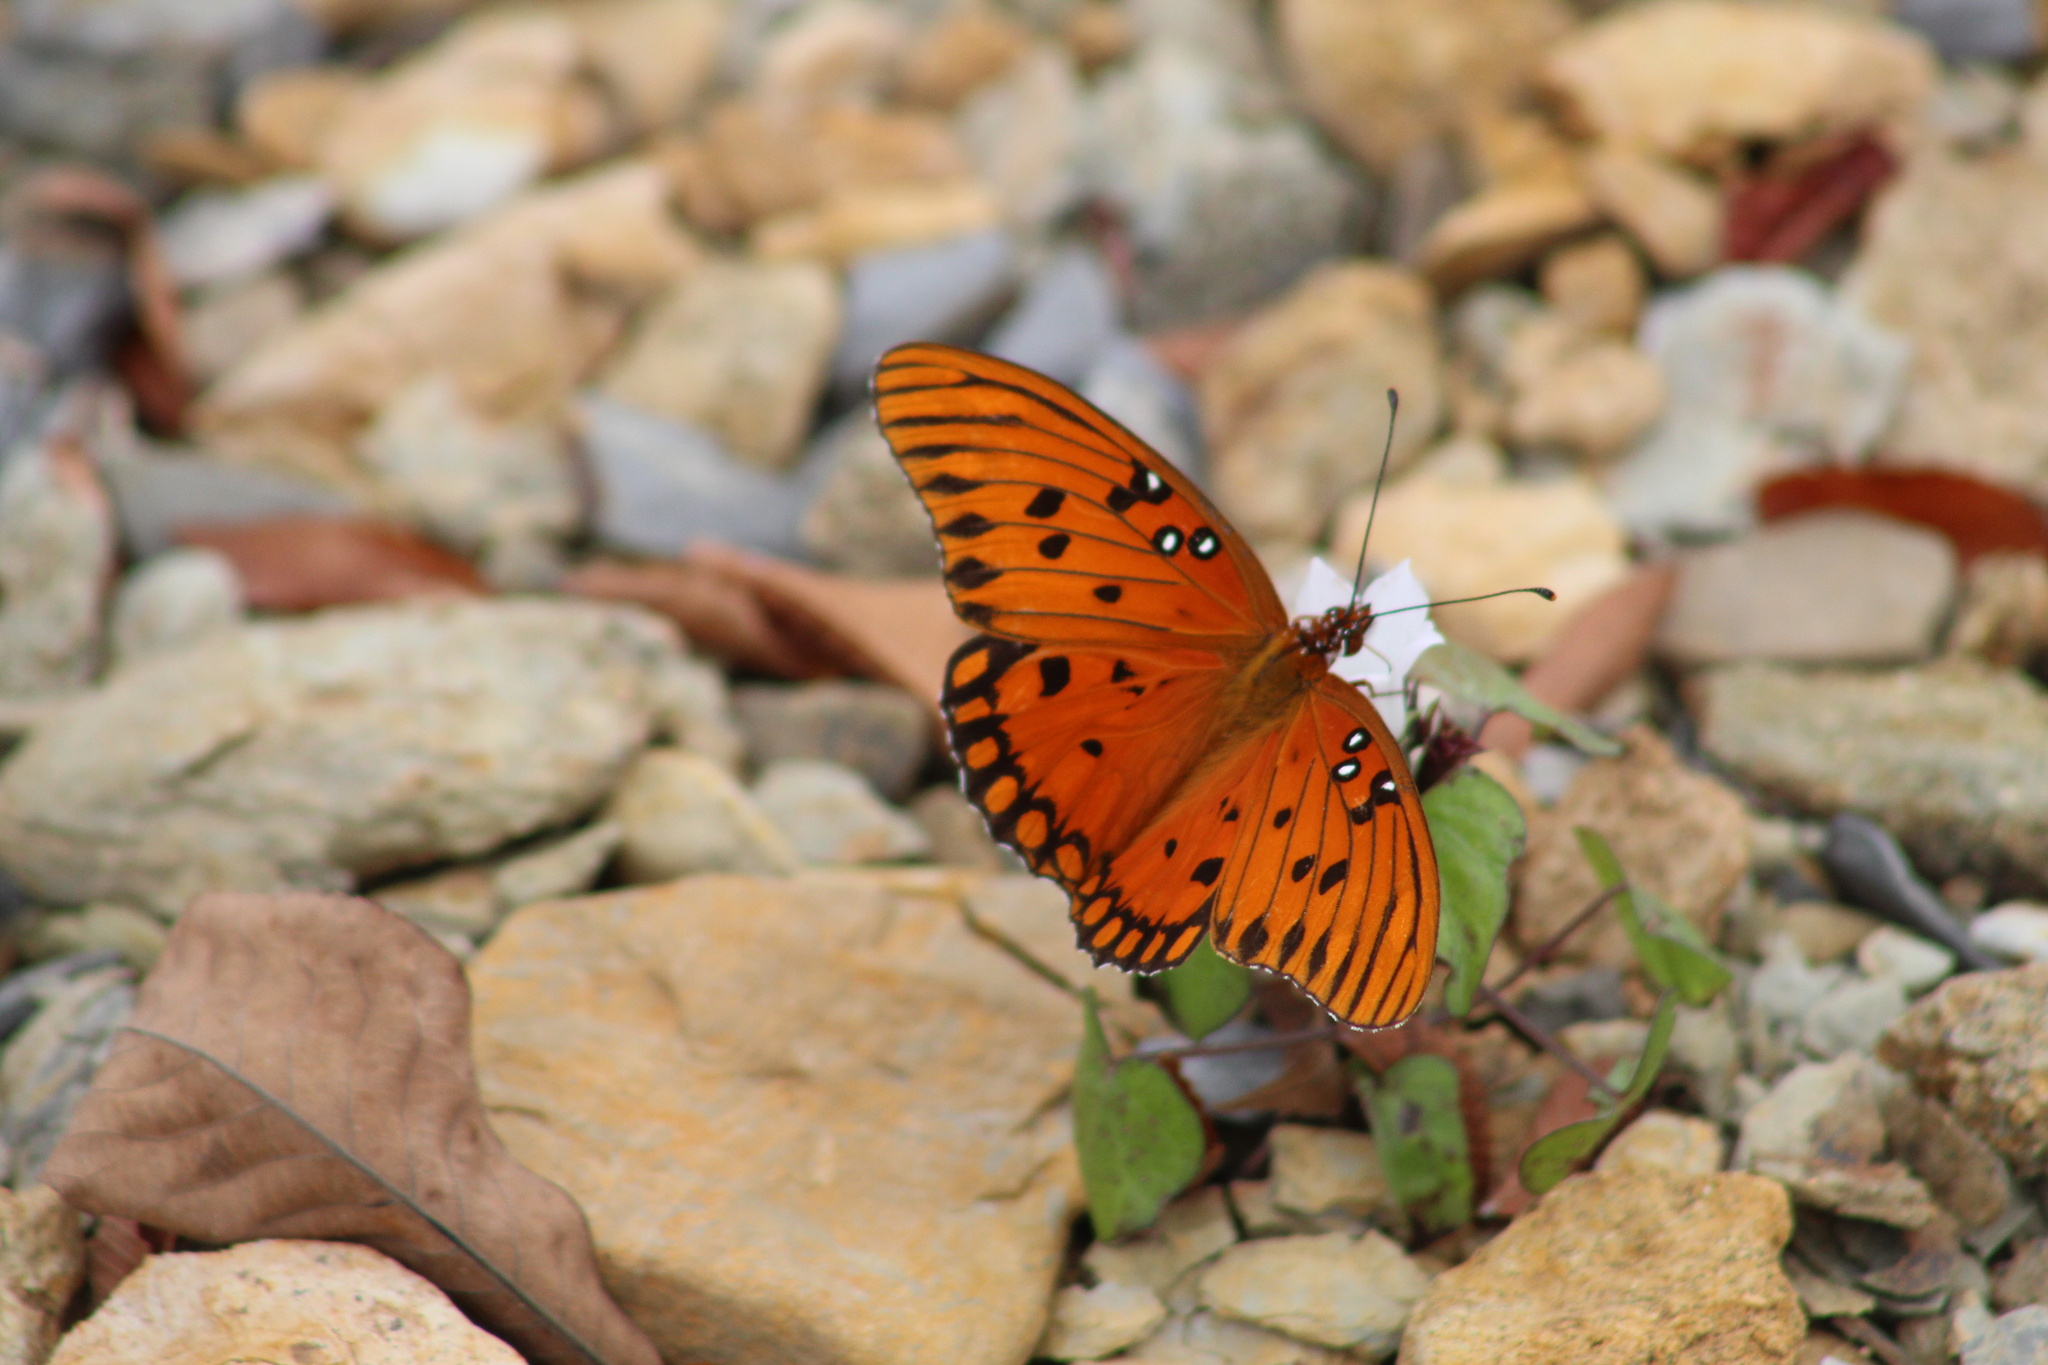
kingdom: Animalia
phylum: Arthropoda
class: Insecta
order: Lepidoptera
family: Nymphalidae
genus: Dione
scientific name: Dione vanillae
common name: Gulf fritillary
